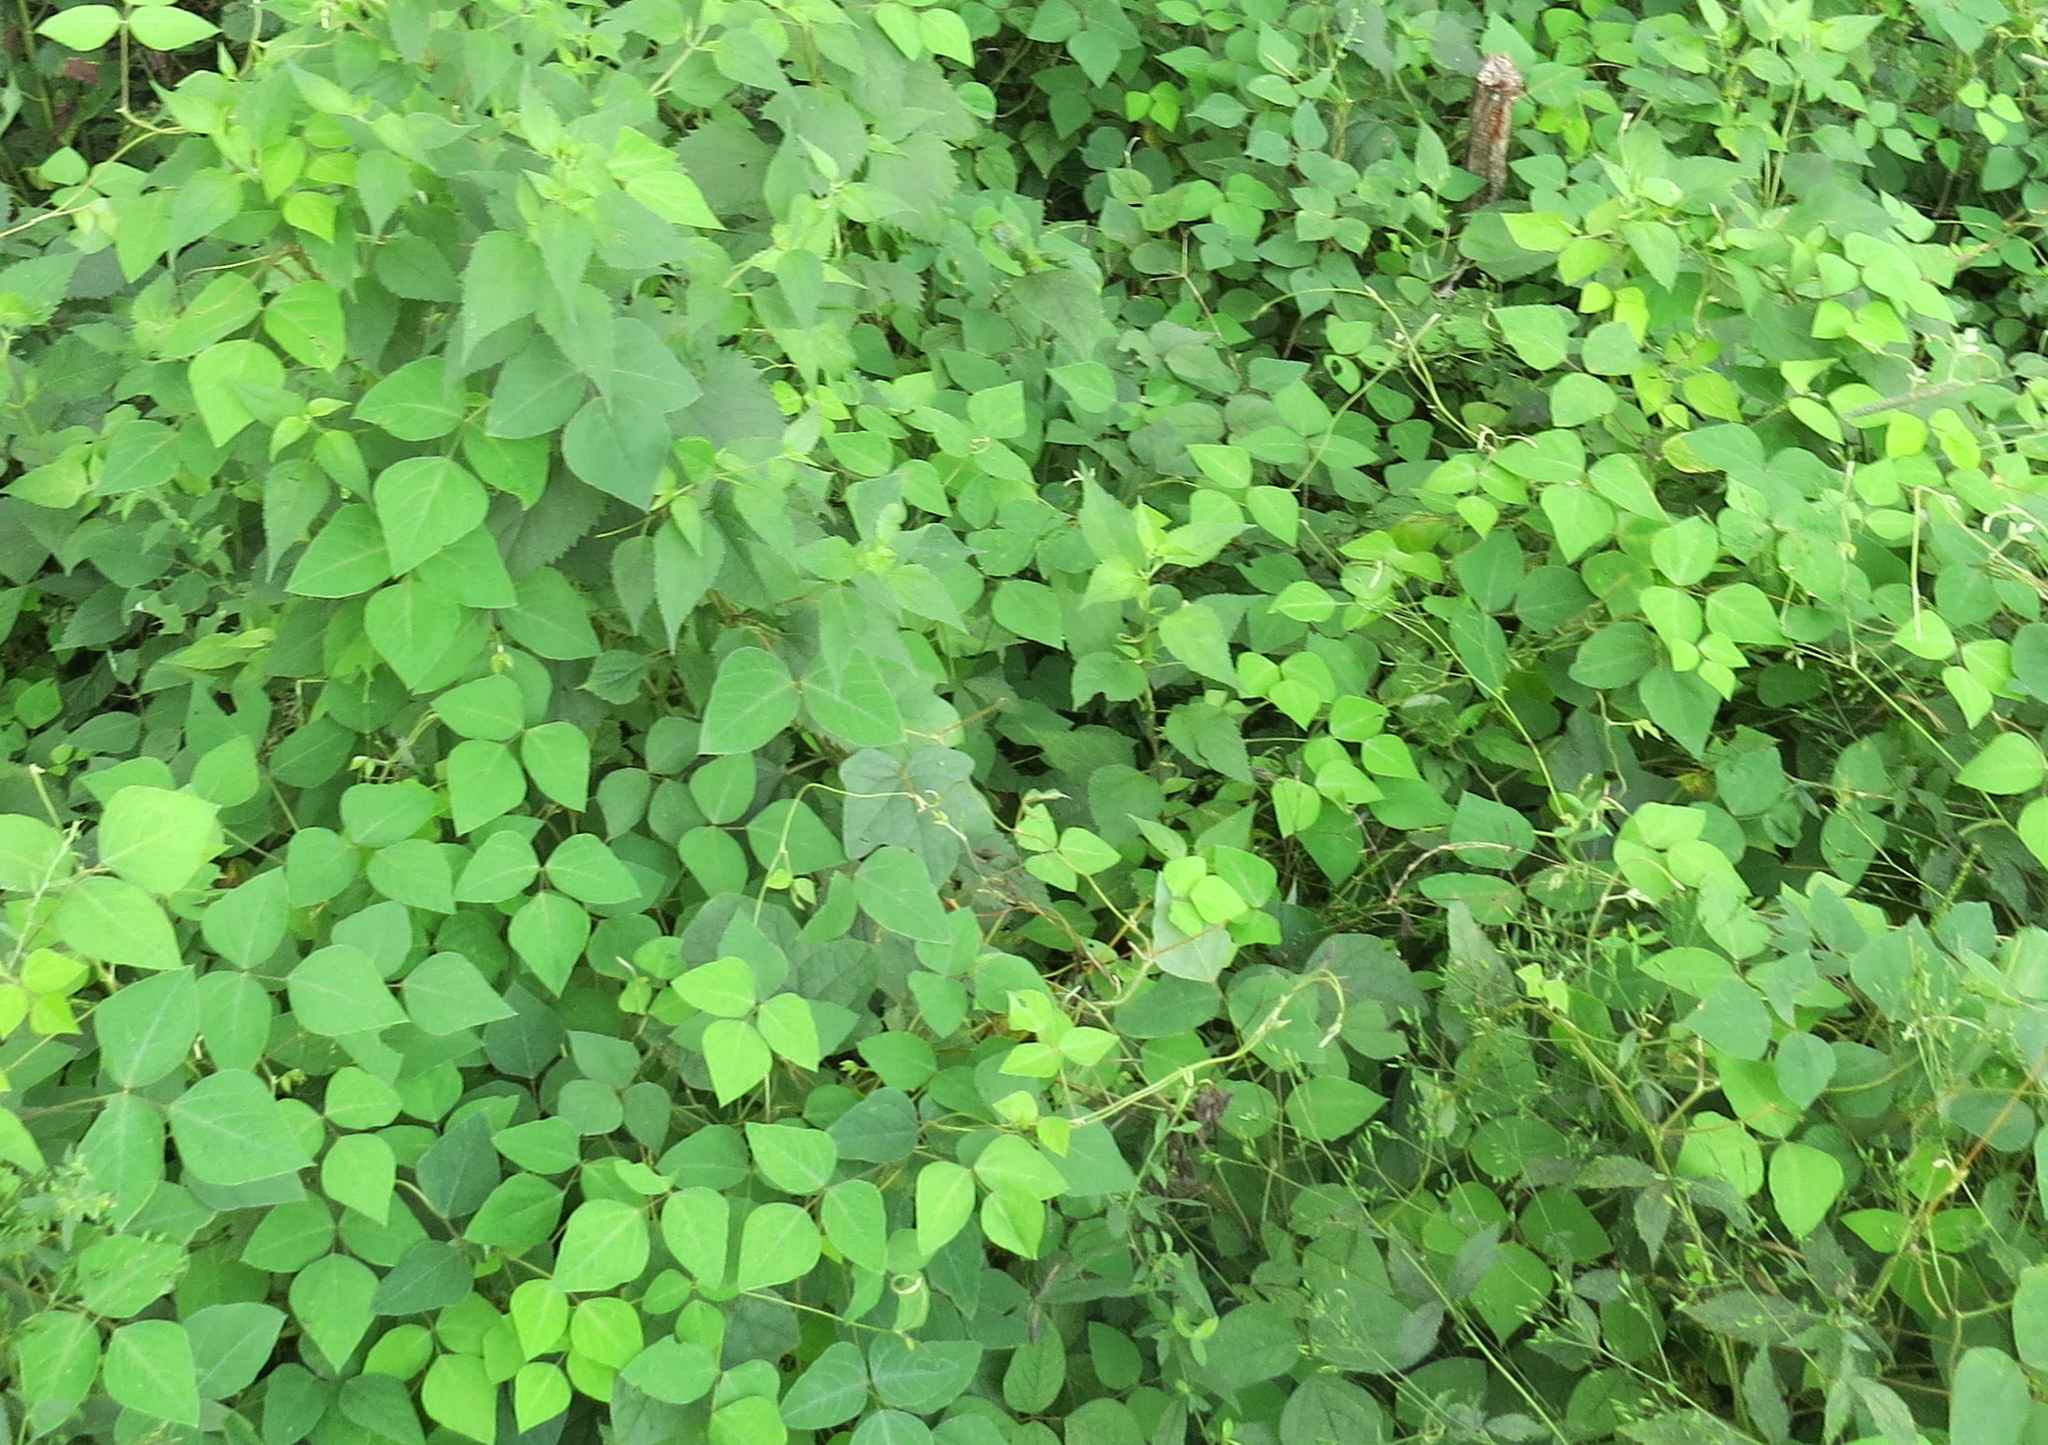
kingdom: Plantae
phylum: Tracheophyta
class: Magnoliopsida
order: Fabales
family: Fabaceae
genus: Amphicarpaea
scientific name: Amphicarpaea bracteata
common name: American hog peanut
